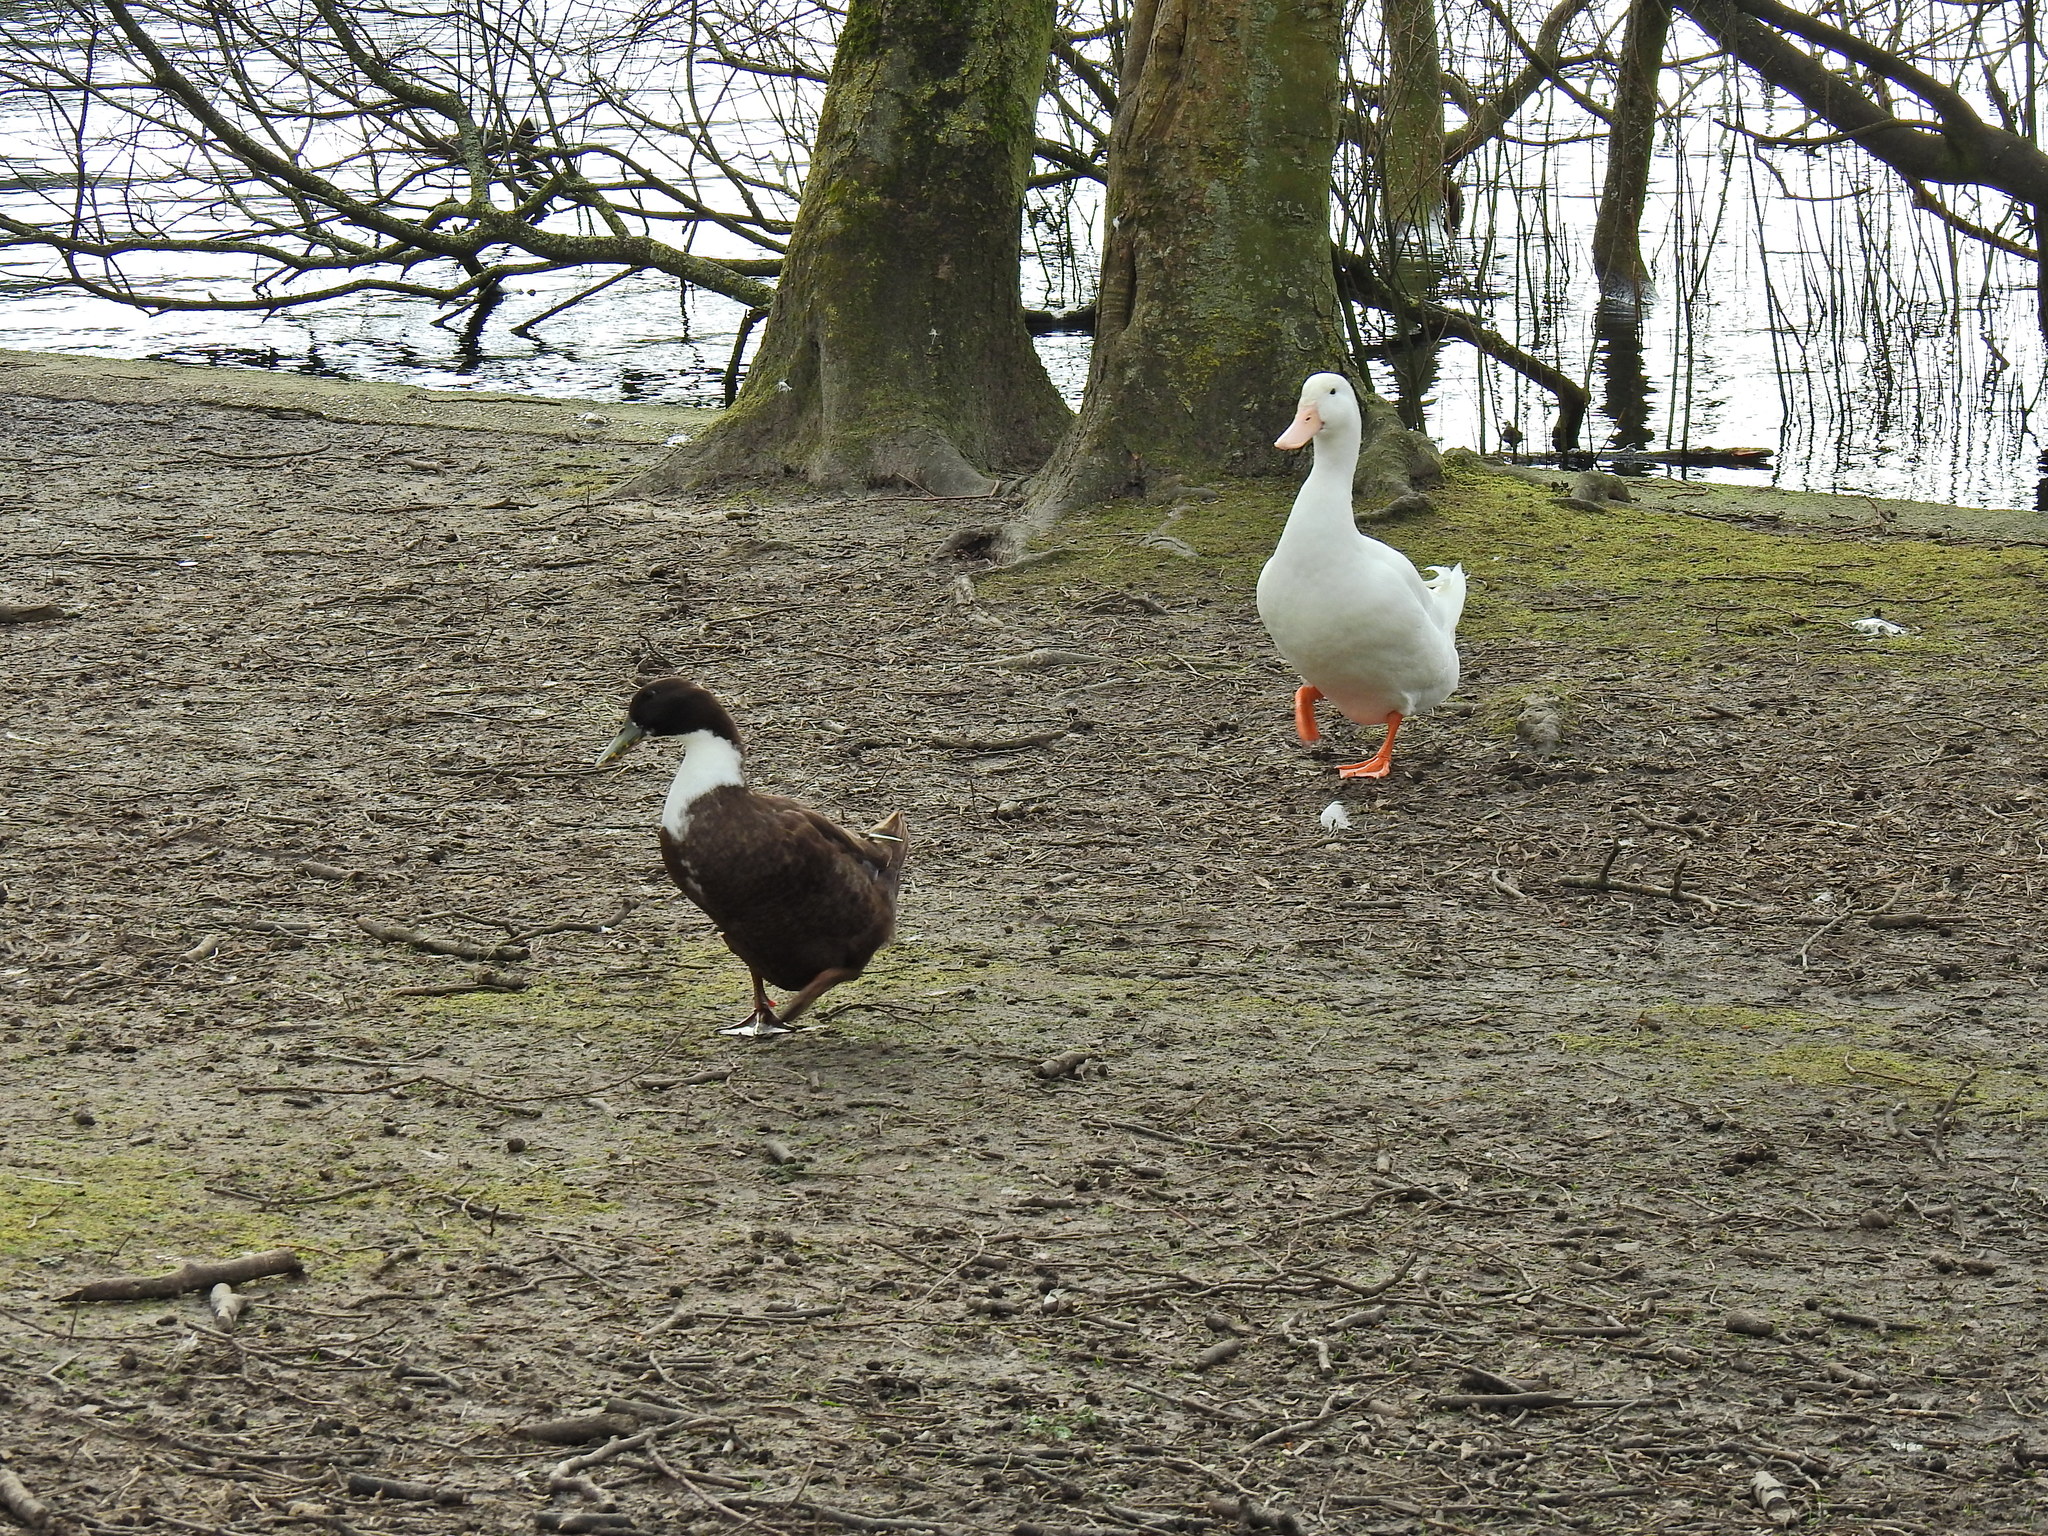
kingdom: Animalia
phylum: Chordata
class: Aves
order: Anseriformes
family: Anatidae
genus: Anas
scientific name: Anas platyrhynchos
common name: Mallard
